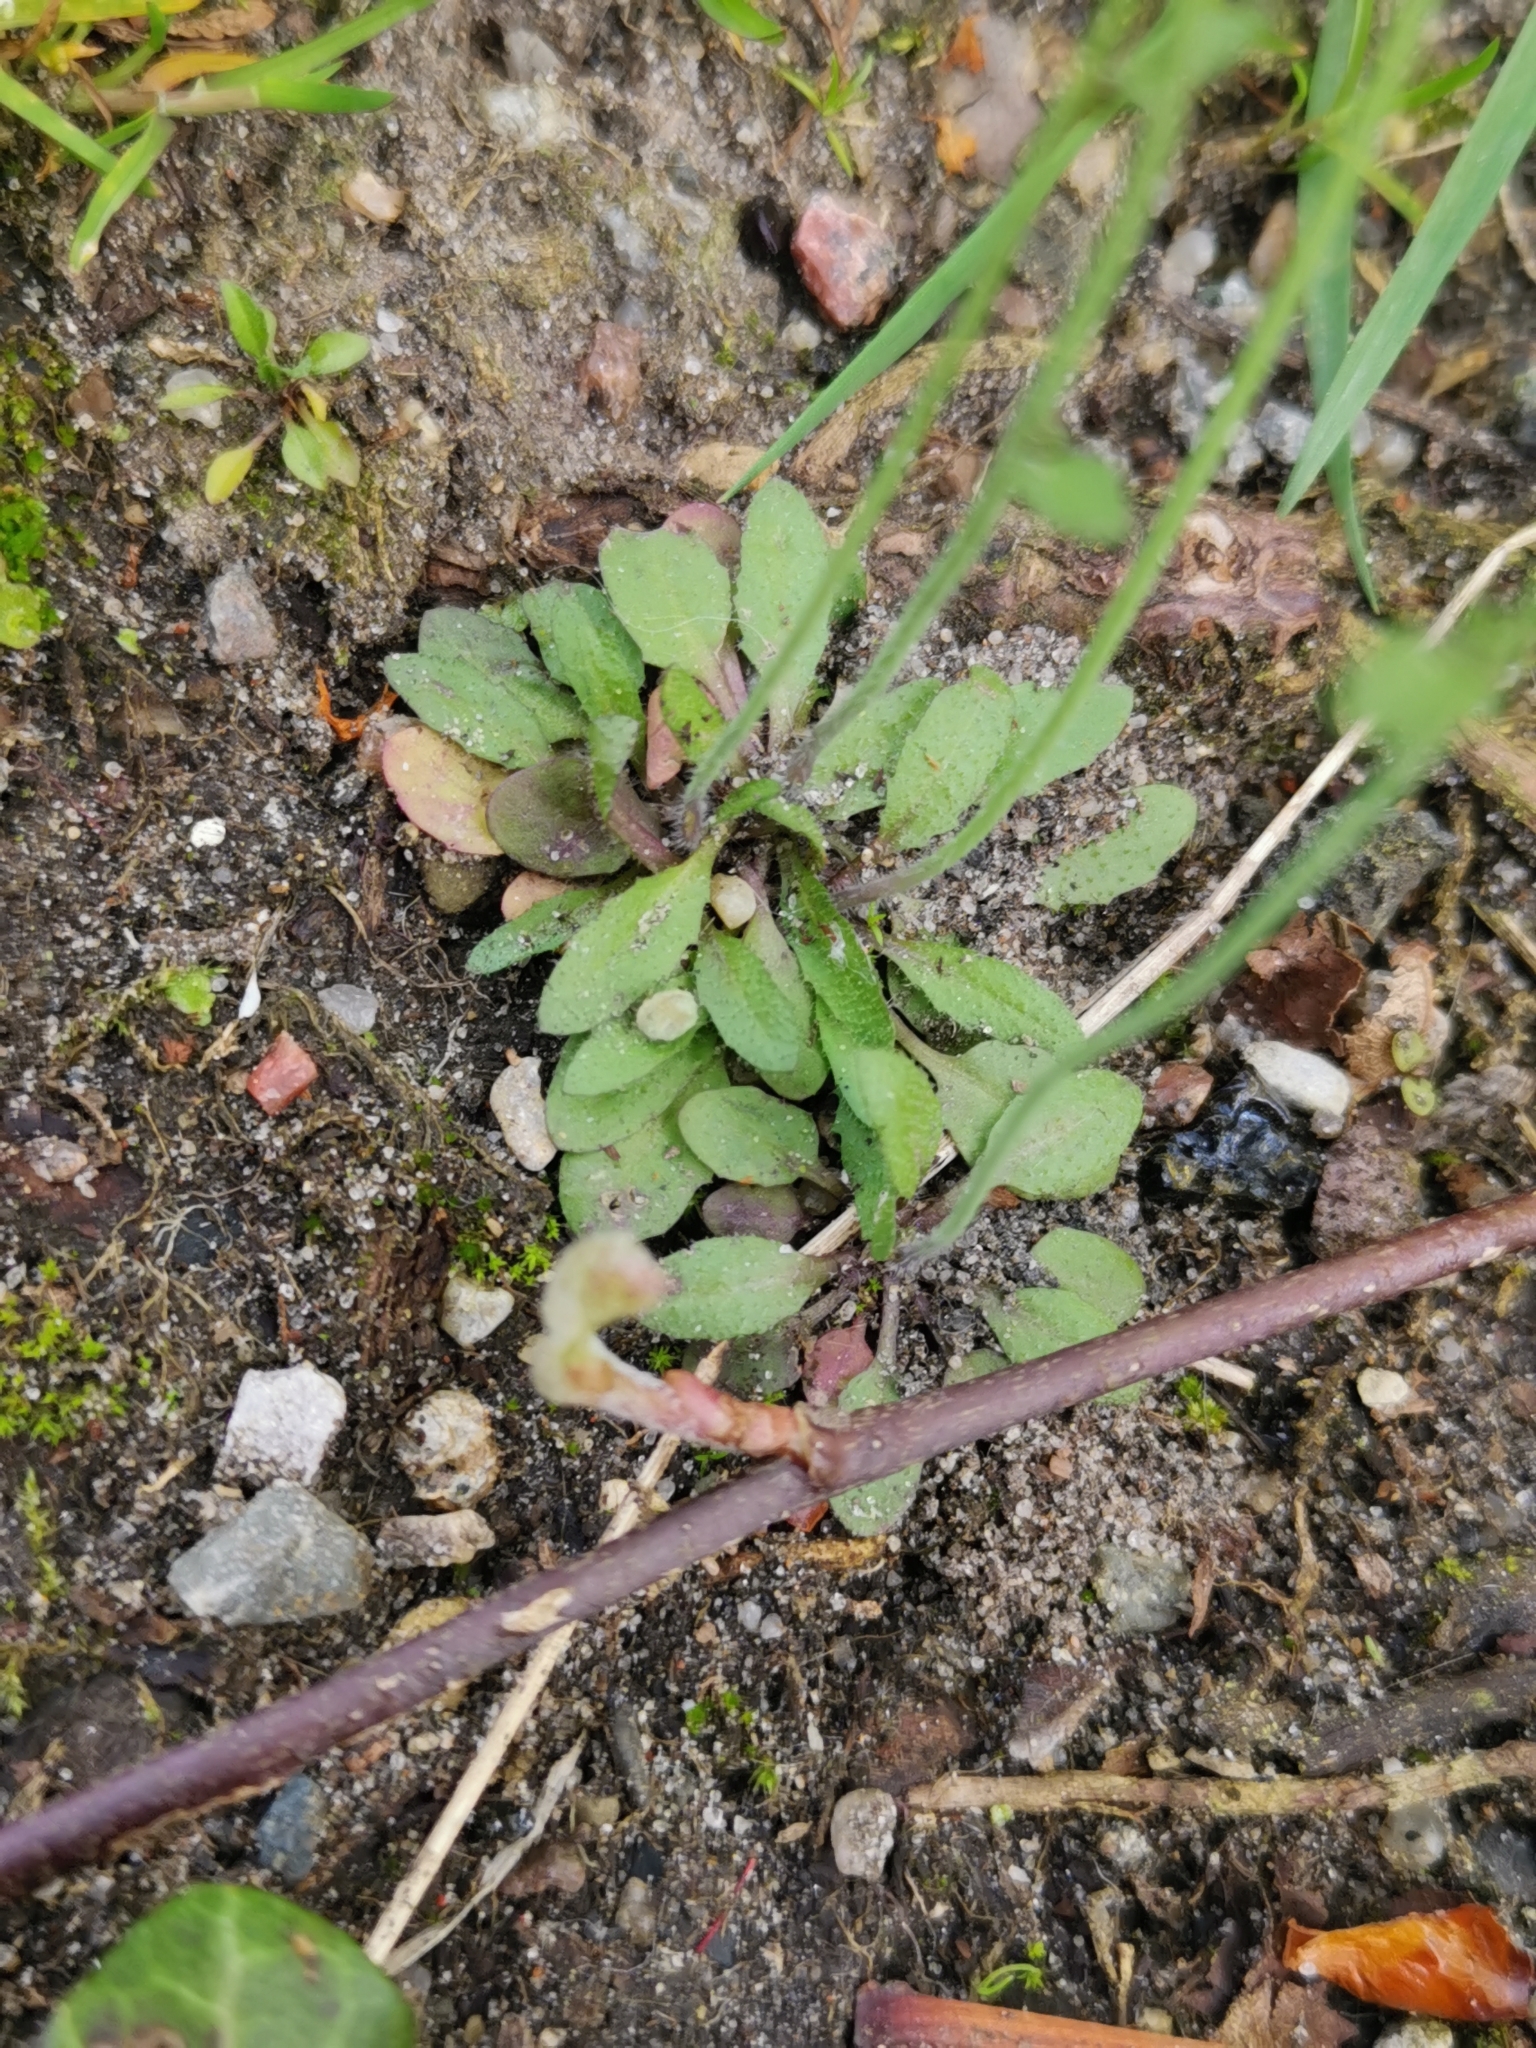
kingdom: Plantae
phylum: Tracheophyta
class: Magnoliopsida
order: Brassicales
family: Brassicaceae
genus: Arabidopsis
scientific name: Arabidopsis thaliana
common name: Thale cress
